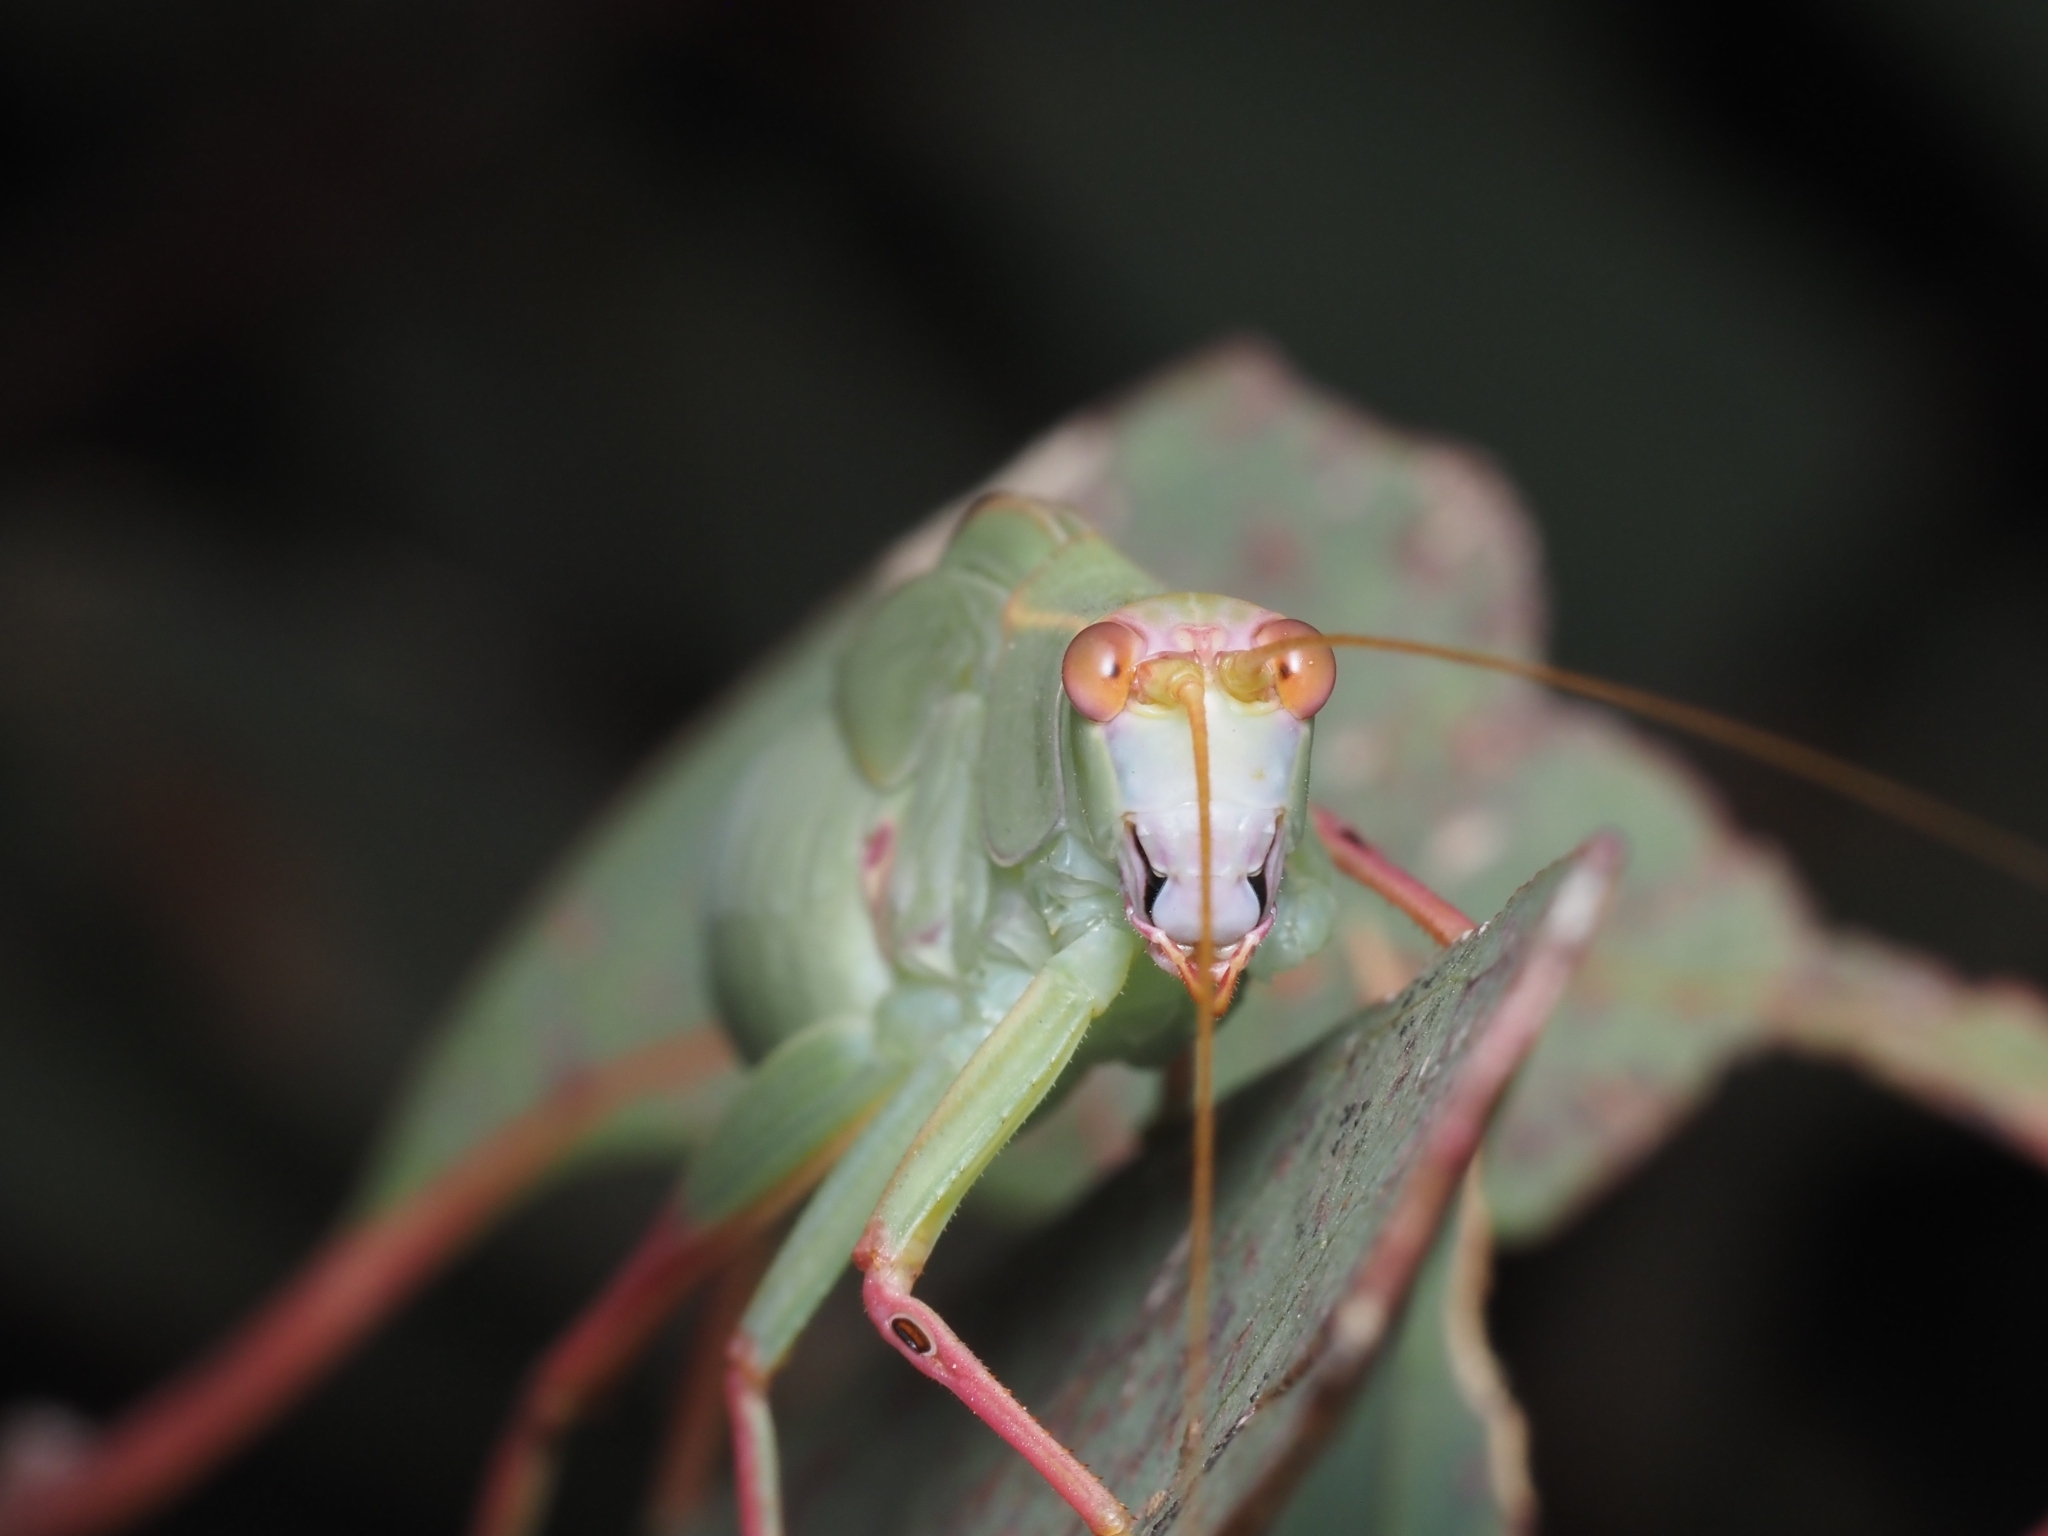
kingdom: Animalia
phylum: Arthropoda
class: Insecta
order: Orthoptera
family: Tettigoniidae
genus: Torbia
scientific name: Torbia viridissima
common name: Non-predaceous gum leaf katydid
